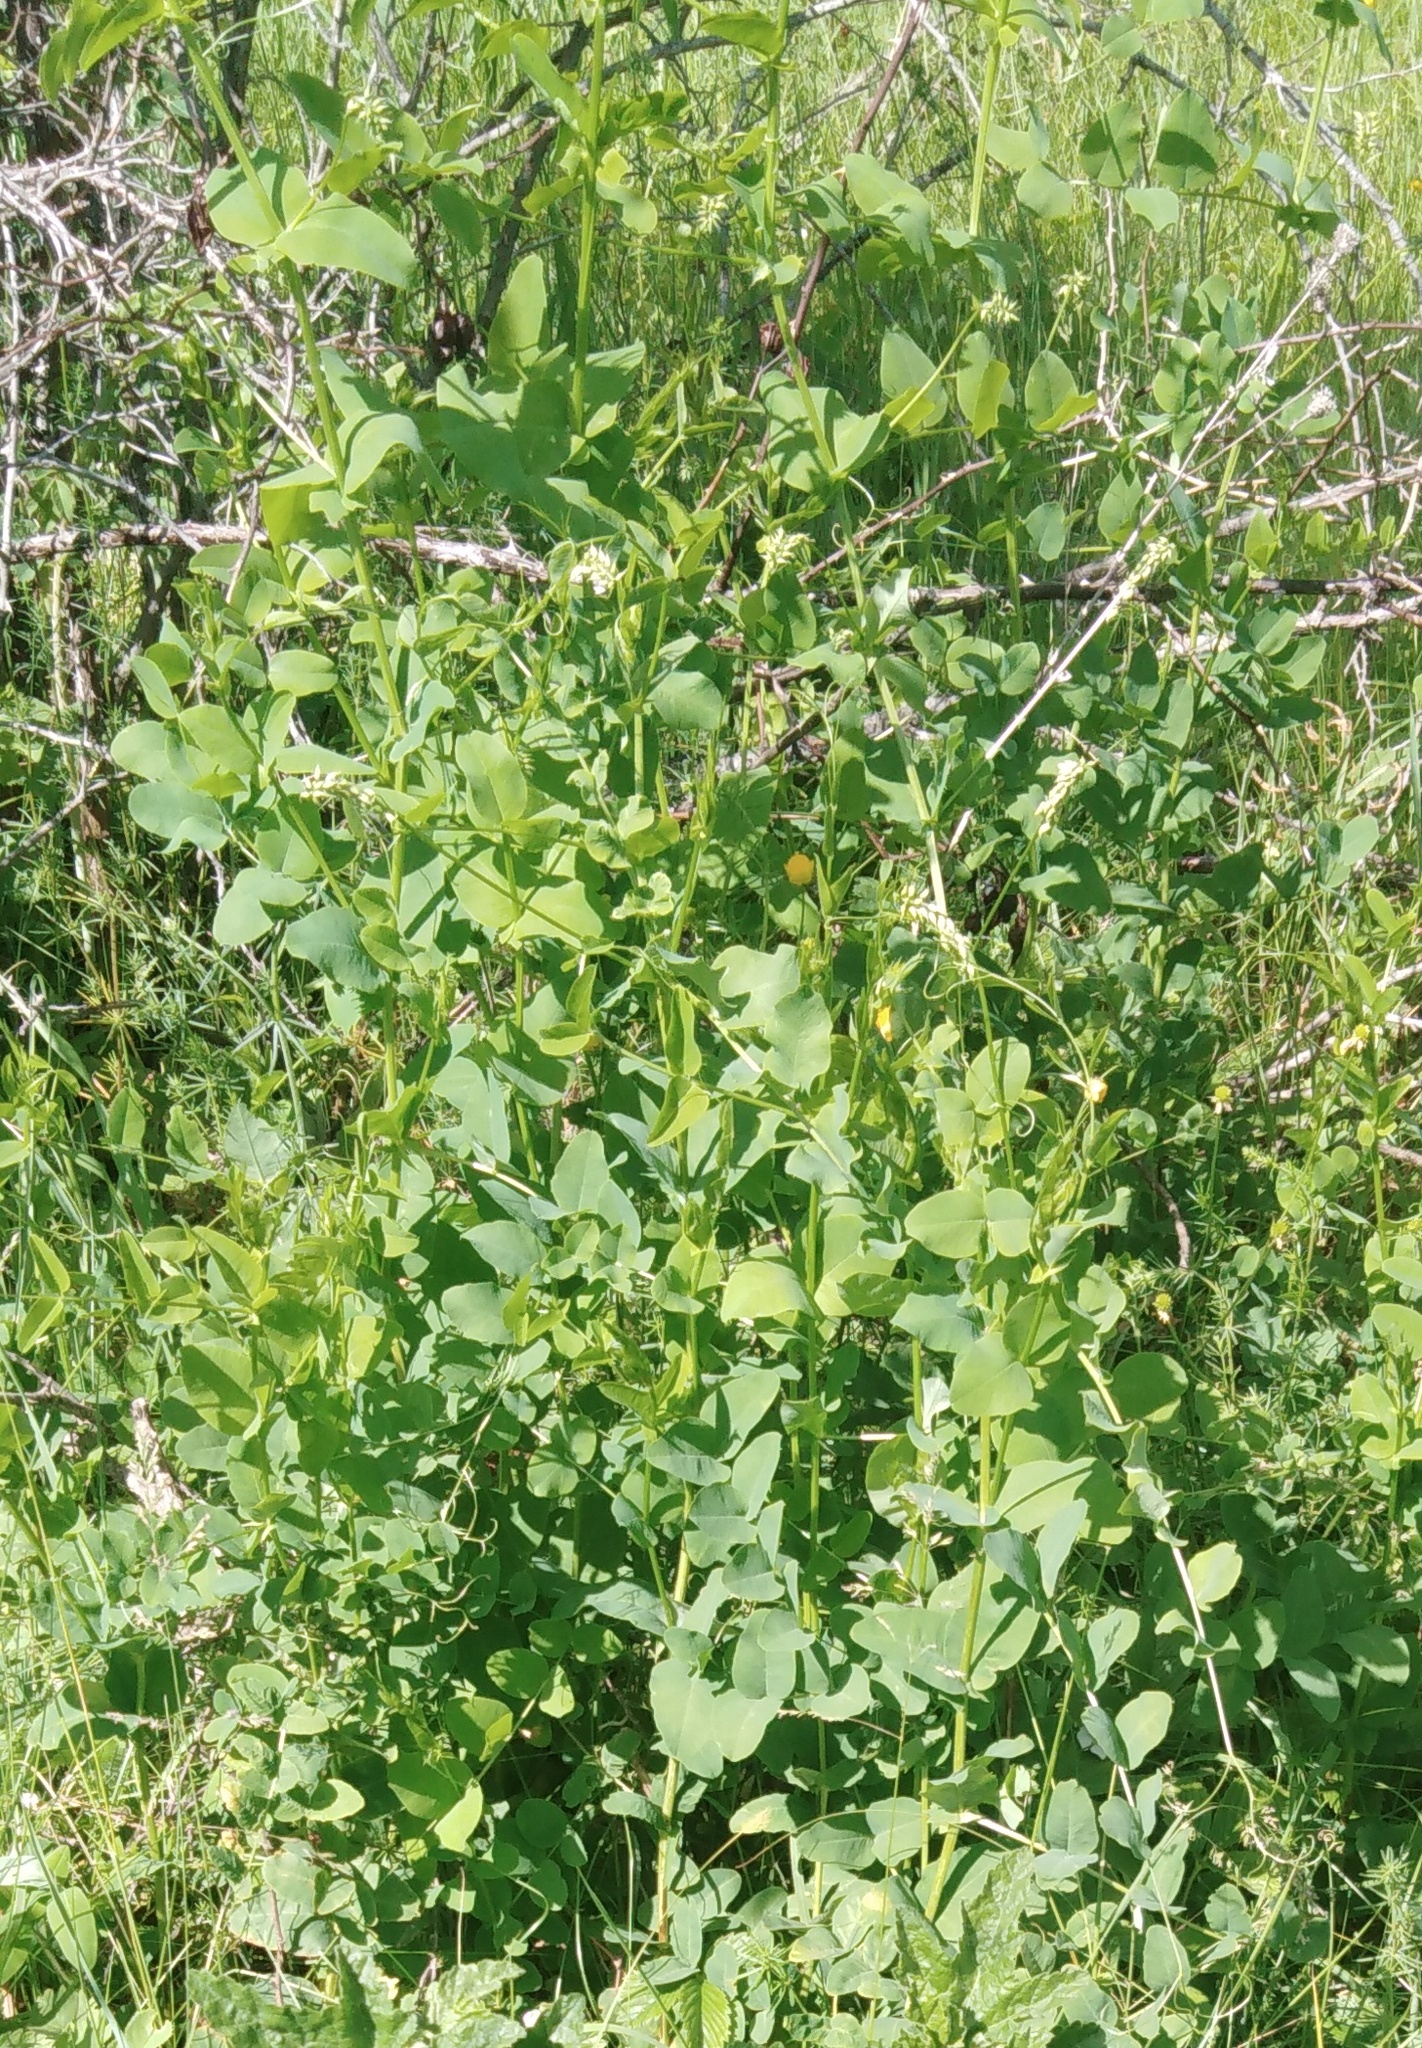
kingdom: Plantae
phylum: Tracheophyta
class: Magnoliopsida
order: Fabales
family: Fabaceae
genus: Galega
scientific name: Galega orientalis
